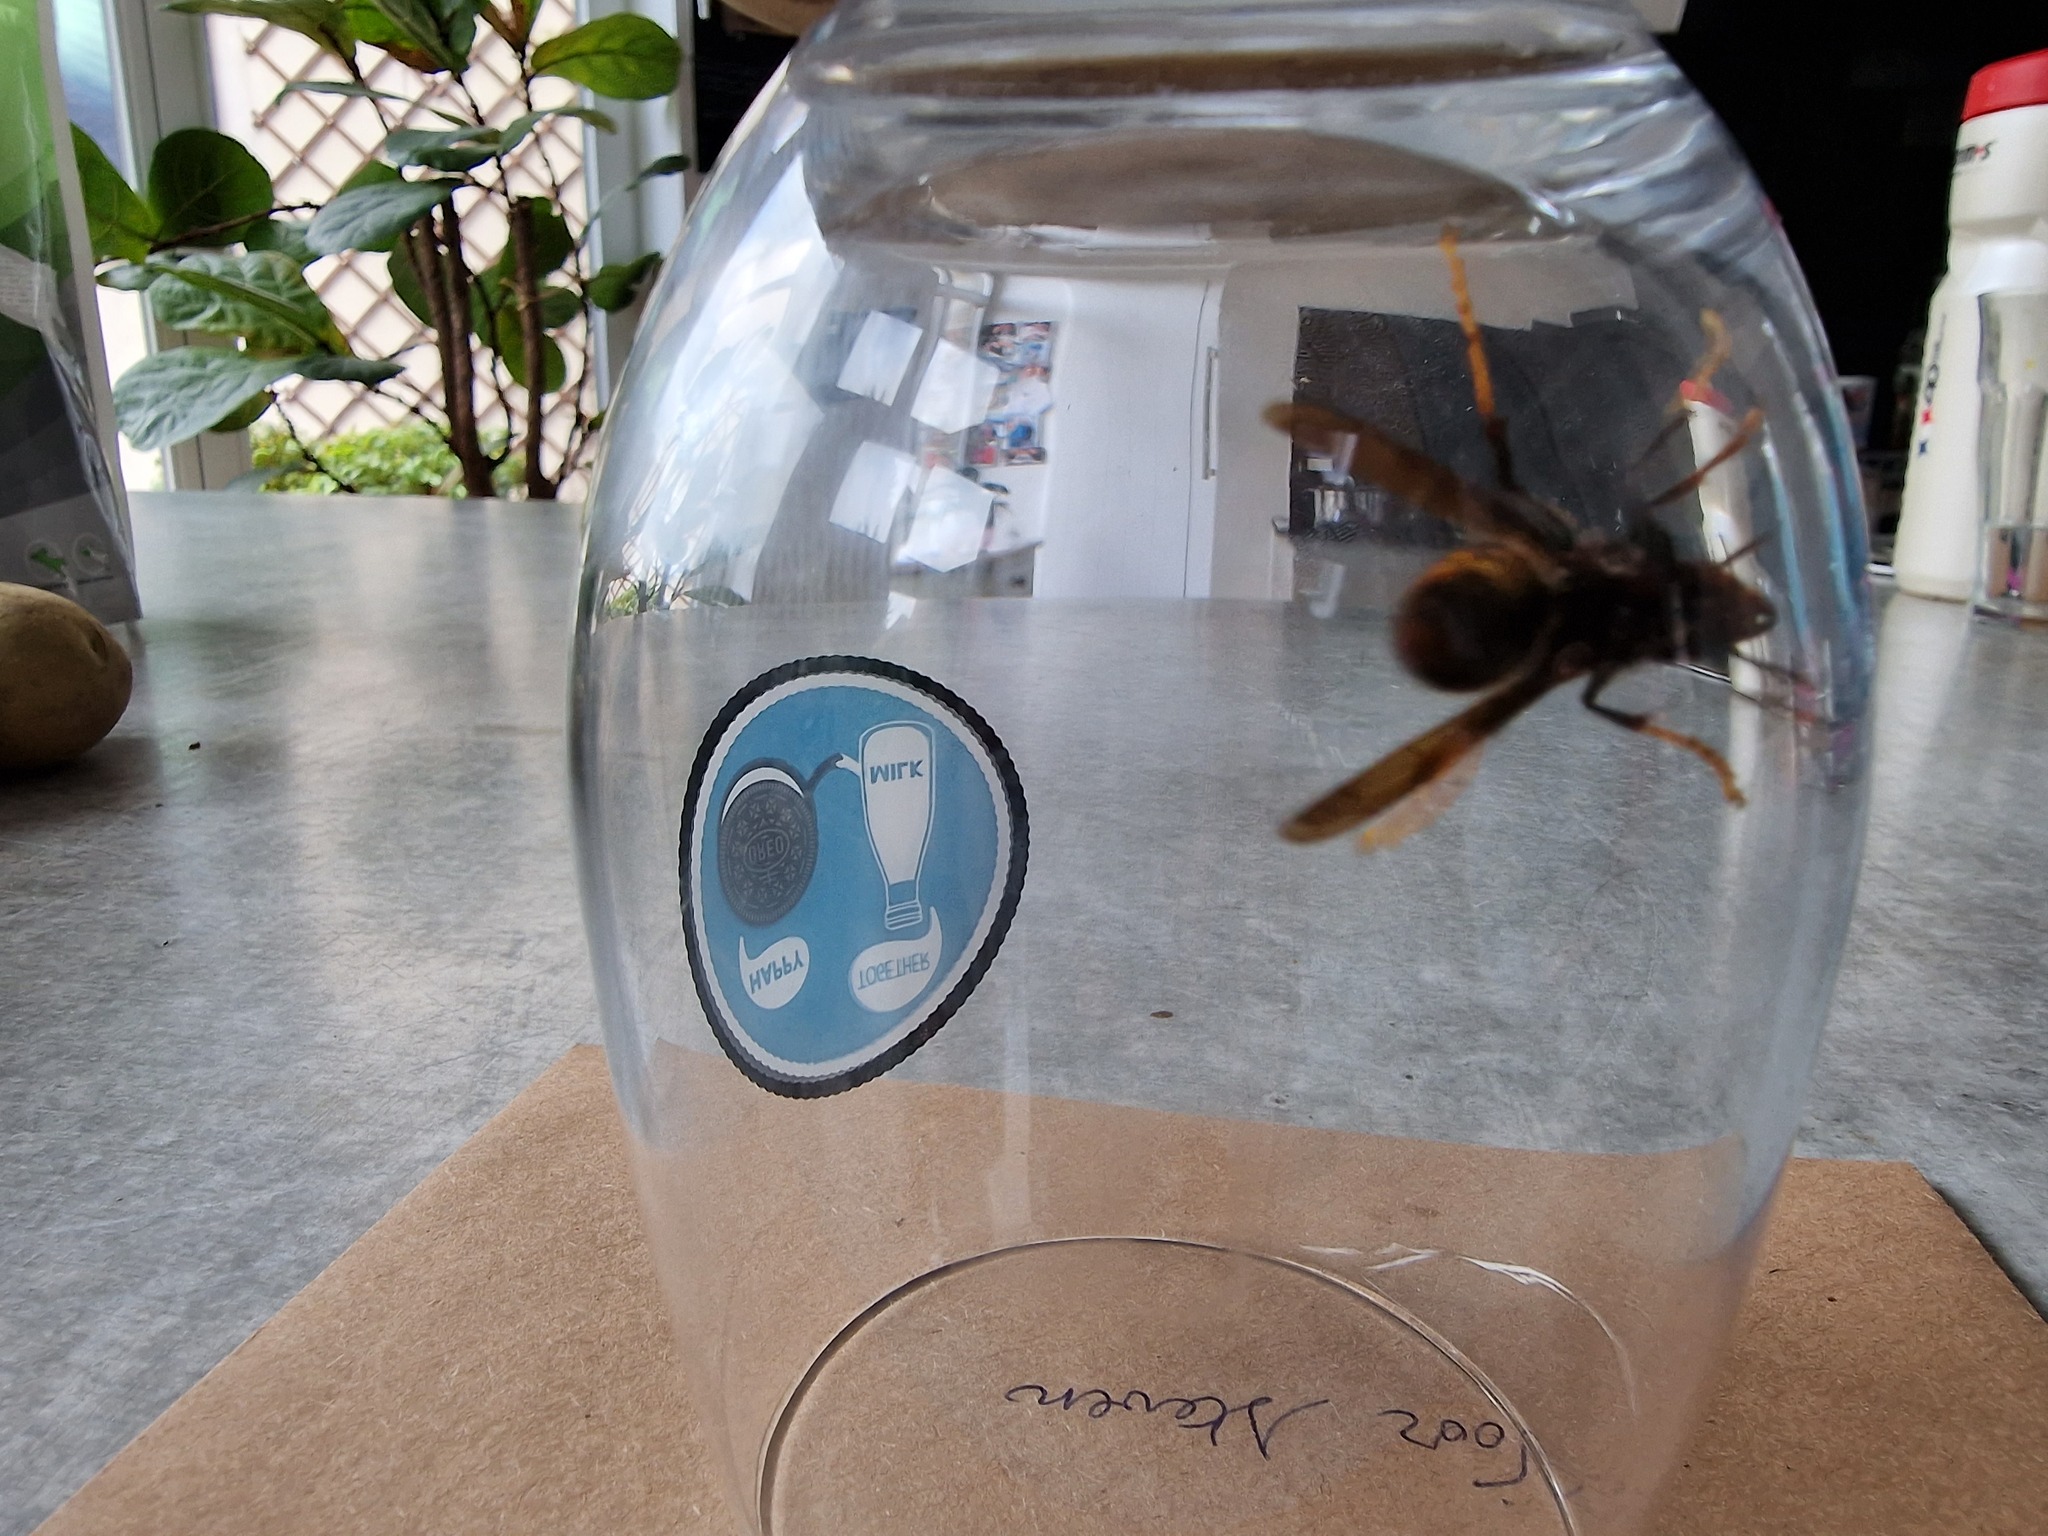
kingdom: Animalia
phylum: Arthropoda
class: Insecta
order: Hymenoptera
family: Vespidae
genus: Vespa
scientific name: Vespa velutina
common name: Asian hornet
